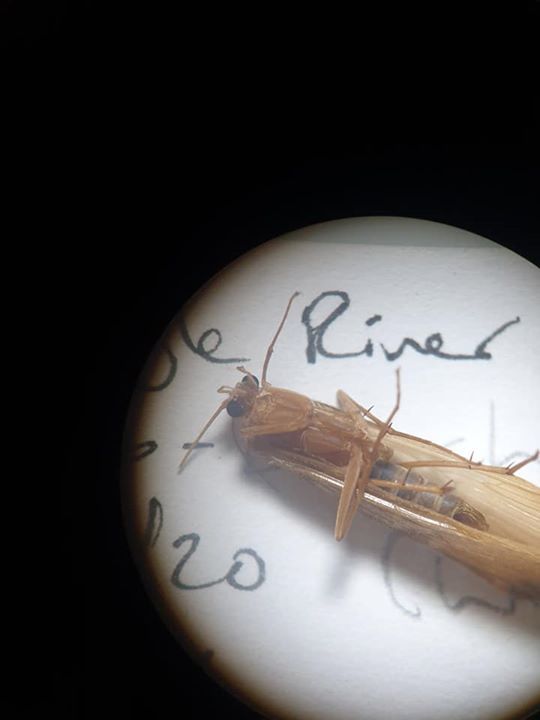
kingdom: Animalia
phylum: Arthropoda
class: Insecta
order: Trichoptera
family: Hydrobiosidae
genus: Costachorema
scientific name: Costachorema xanthopterum
